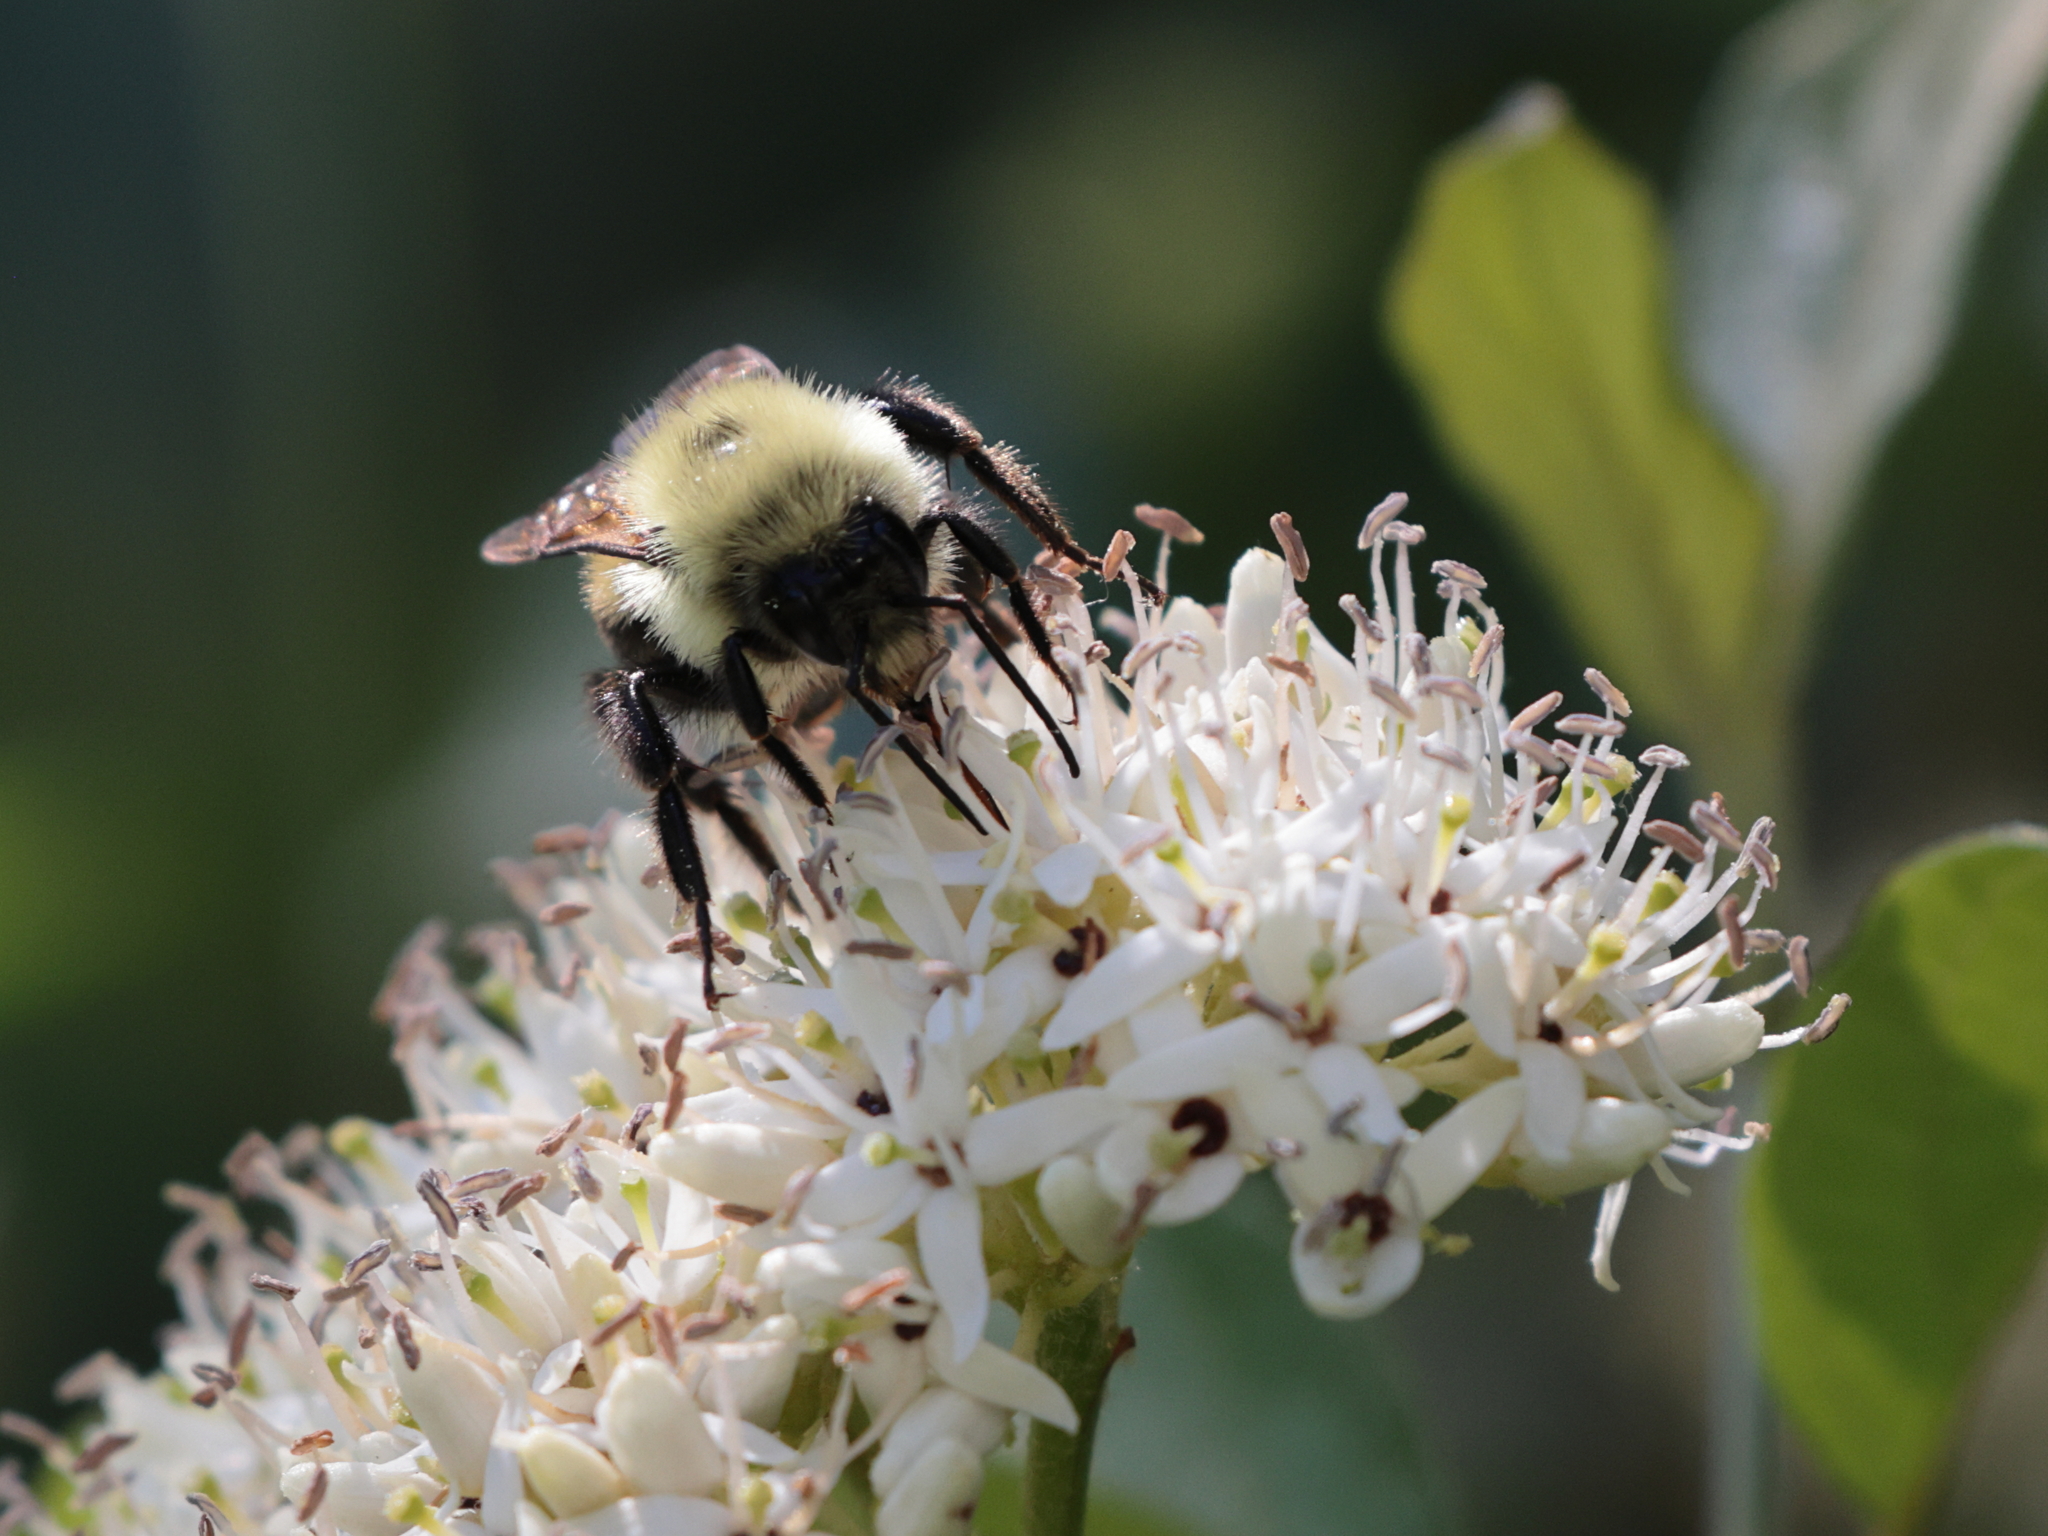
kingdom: Animalia
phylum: Arthropoda
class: Insecta
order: Hymenoptera
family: Apidae
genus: Bombus
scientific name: Bombus bimaculatus
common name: Two-spotted bumble bee
